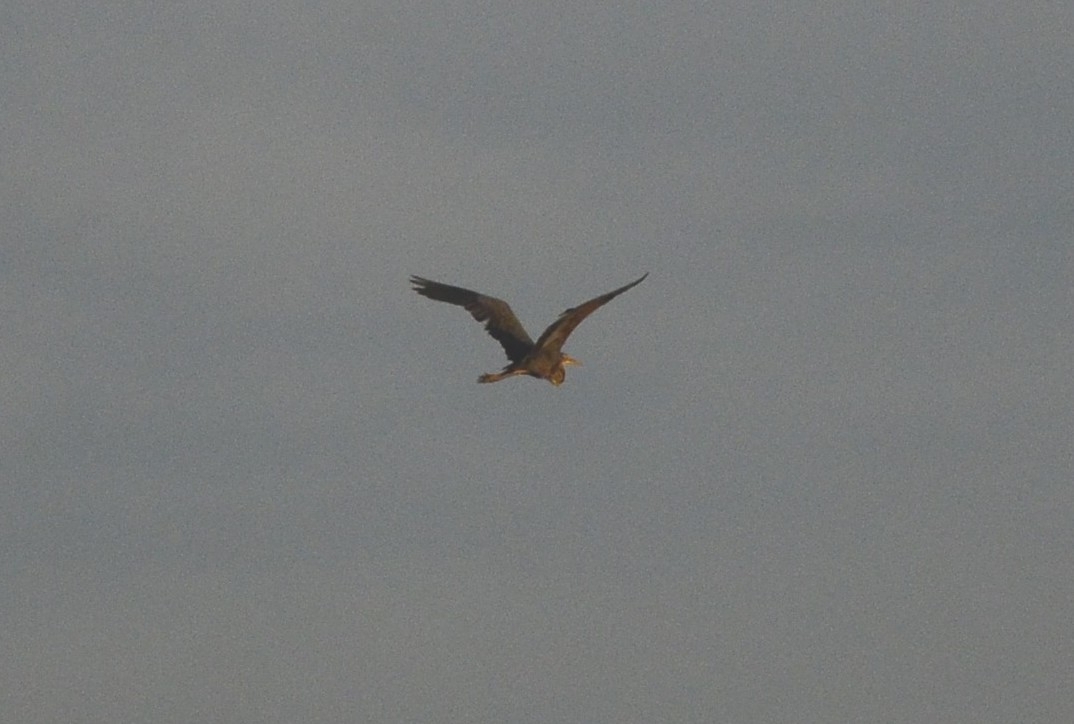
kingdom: Animalia
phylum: Chordata
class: Aves
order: Pelecaniformes
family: Ardeidae
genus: Ardea
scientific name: Ardea purpurea
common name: Purple heron
